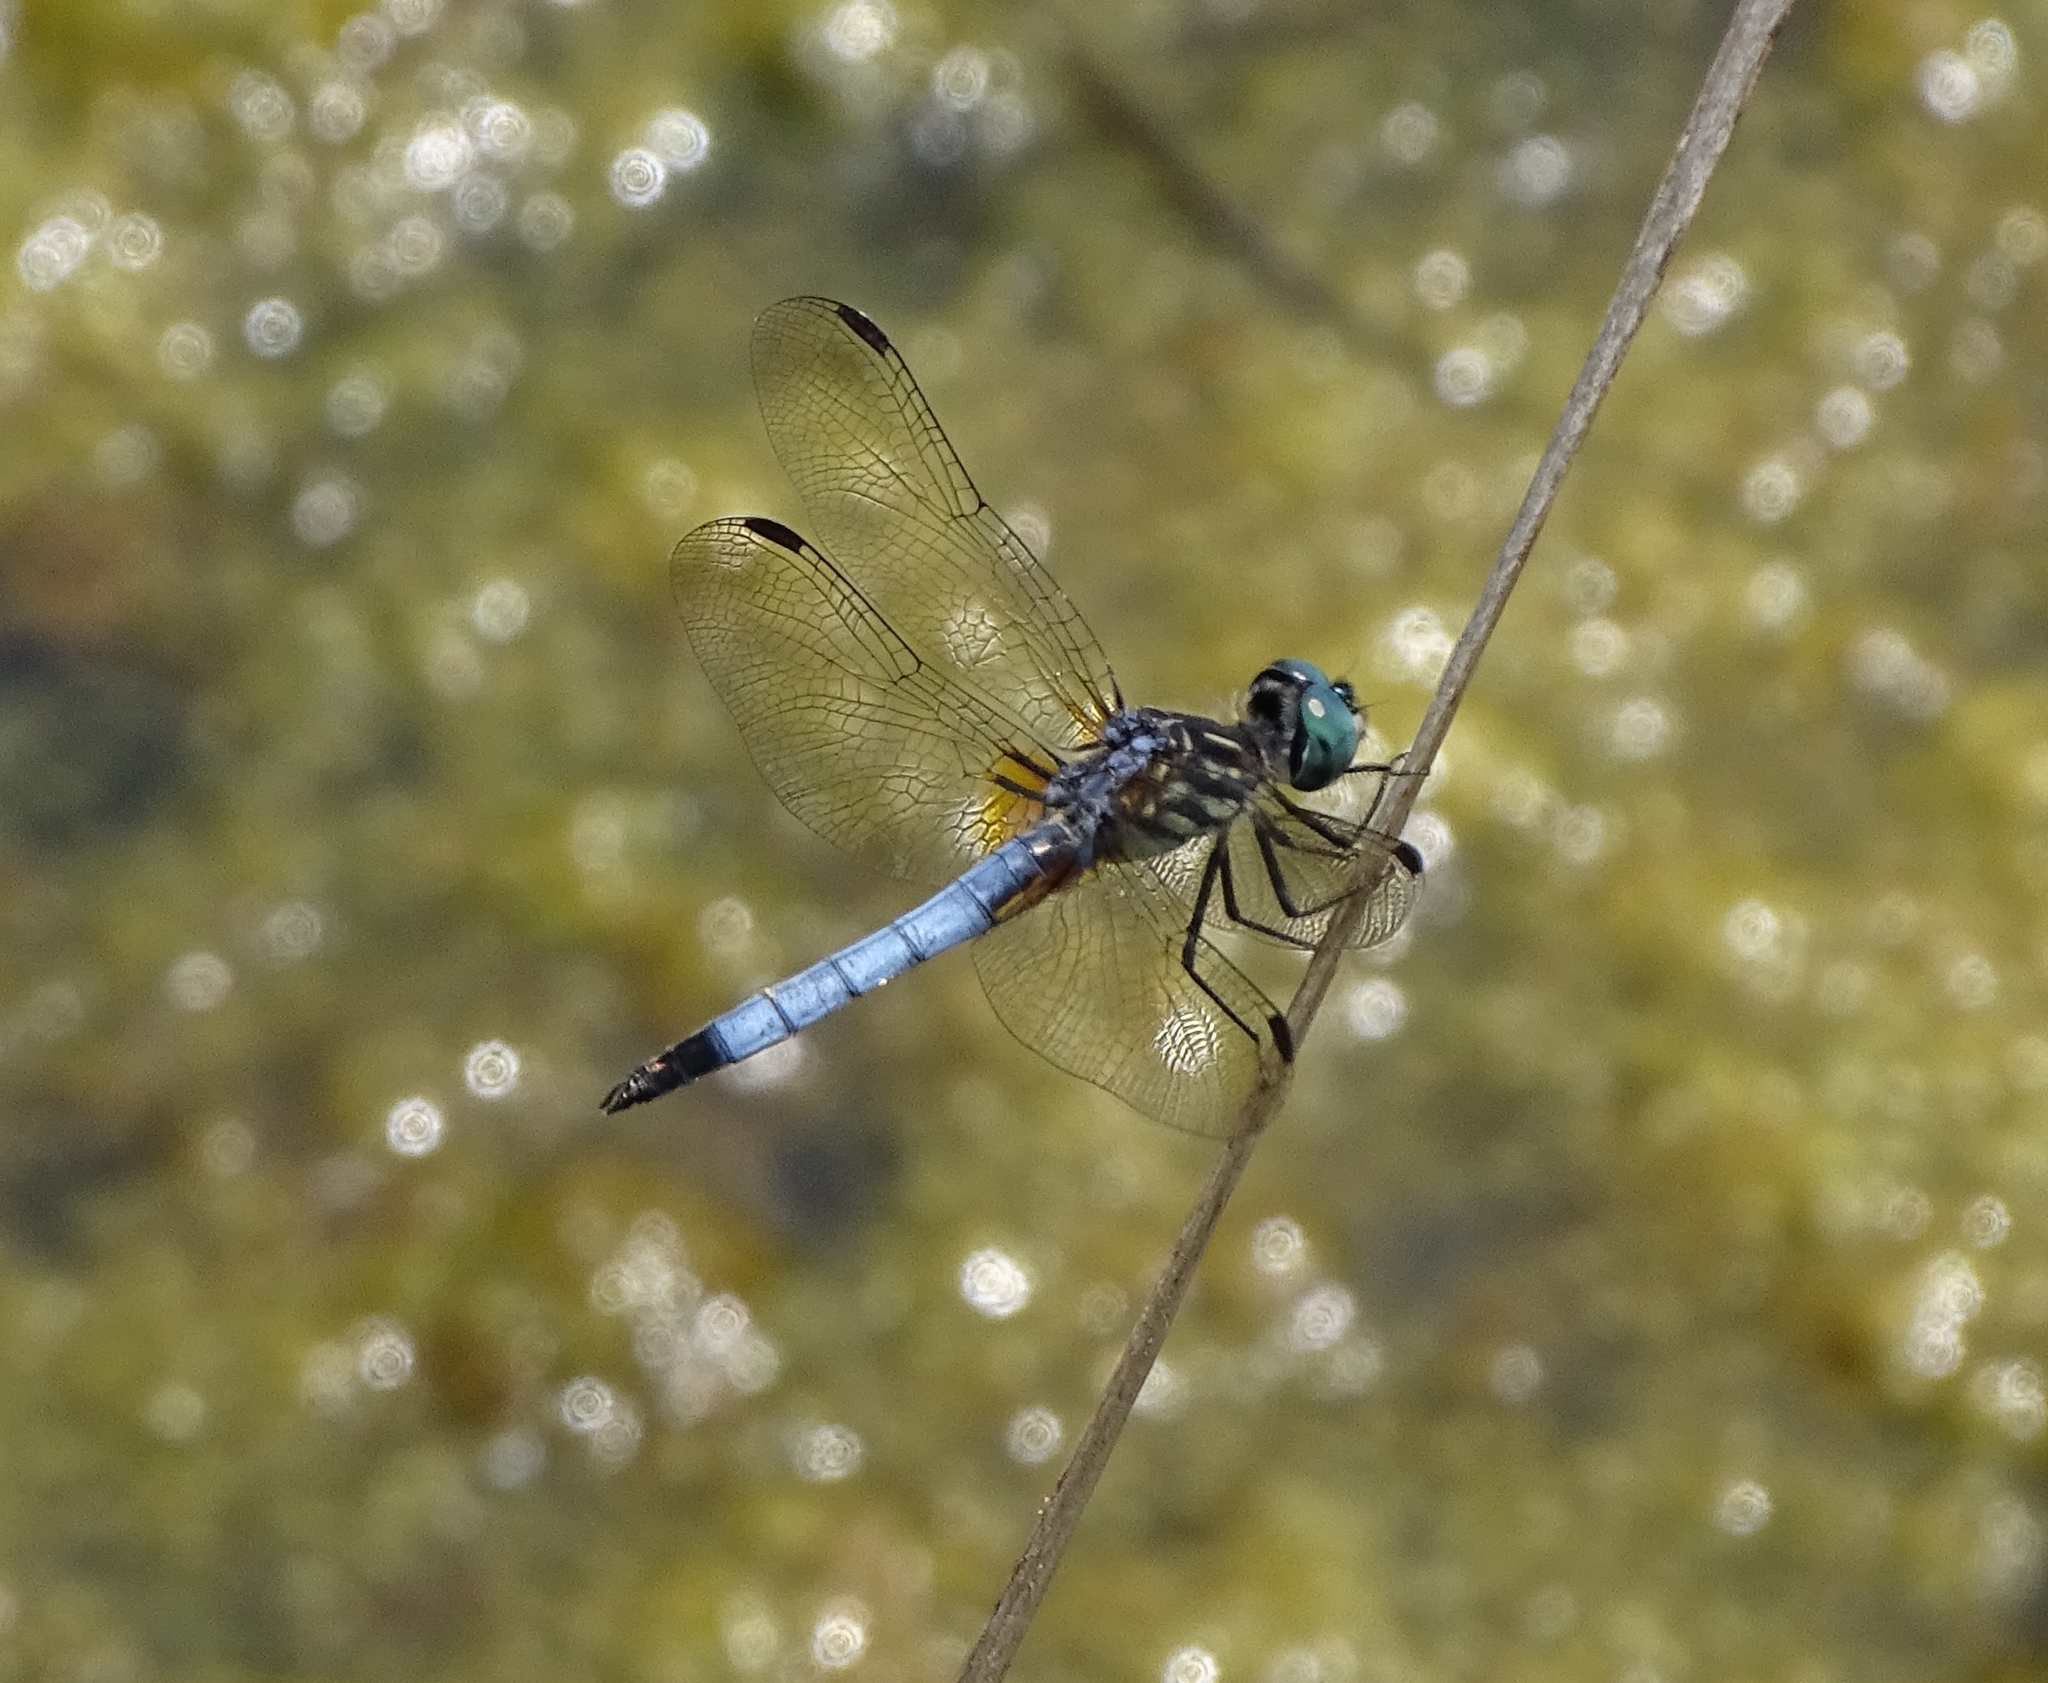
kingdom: Animalia
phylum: Arthropoda
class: Insecta
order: Odonata
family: Libellulidae
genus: Pachydiplax
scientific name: Pachydiplax longipennis
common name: Blue dasher
